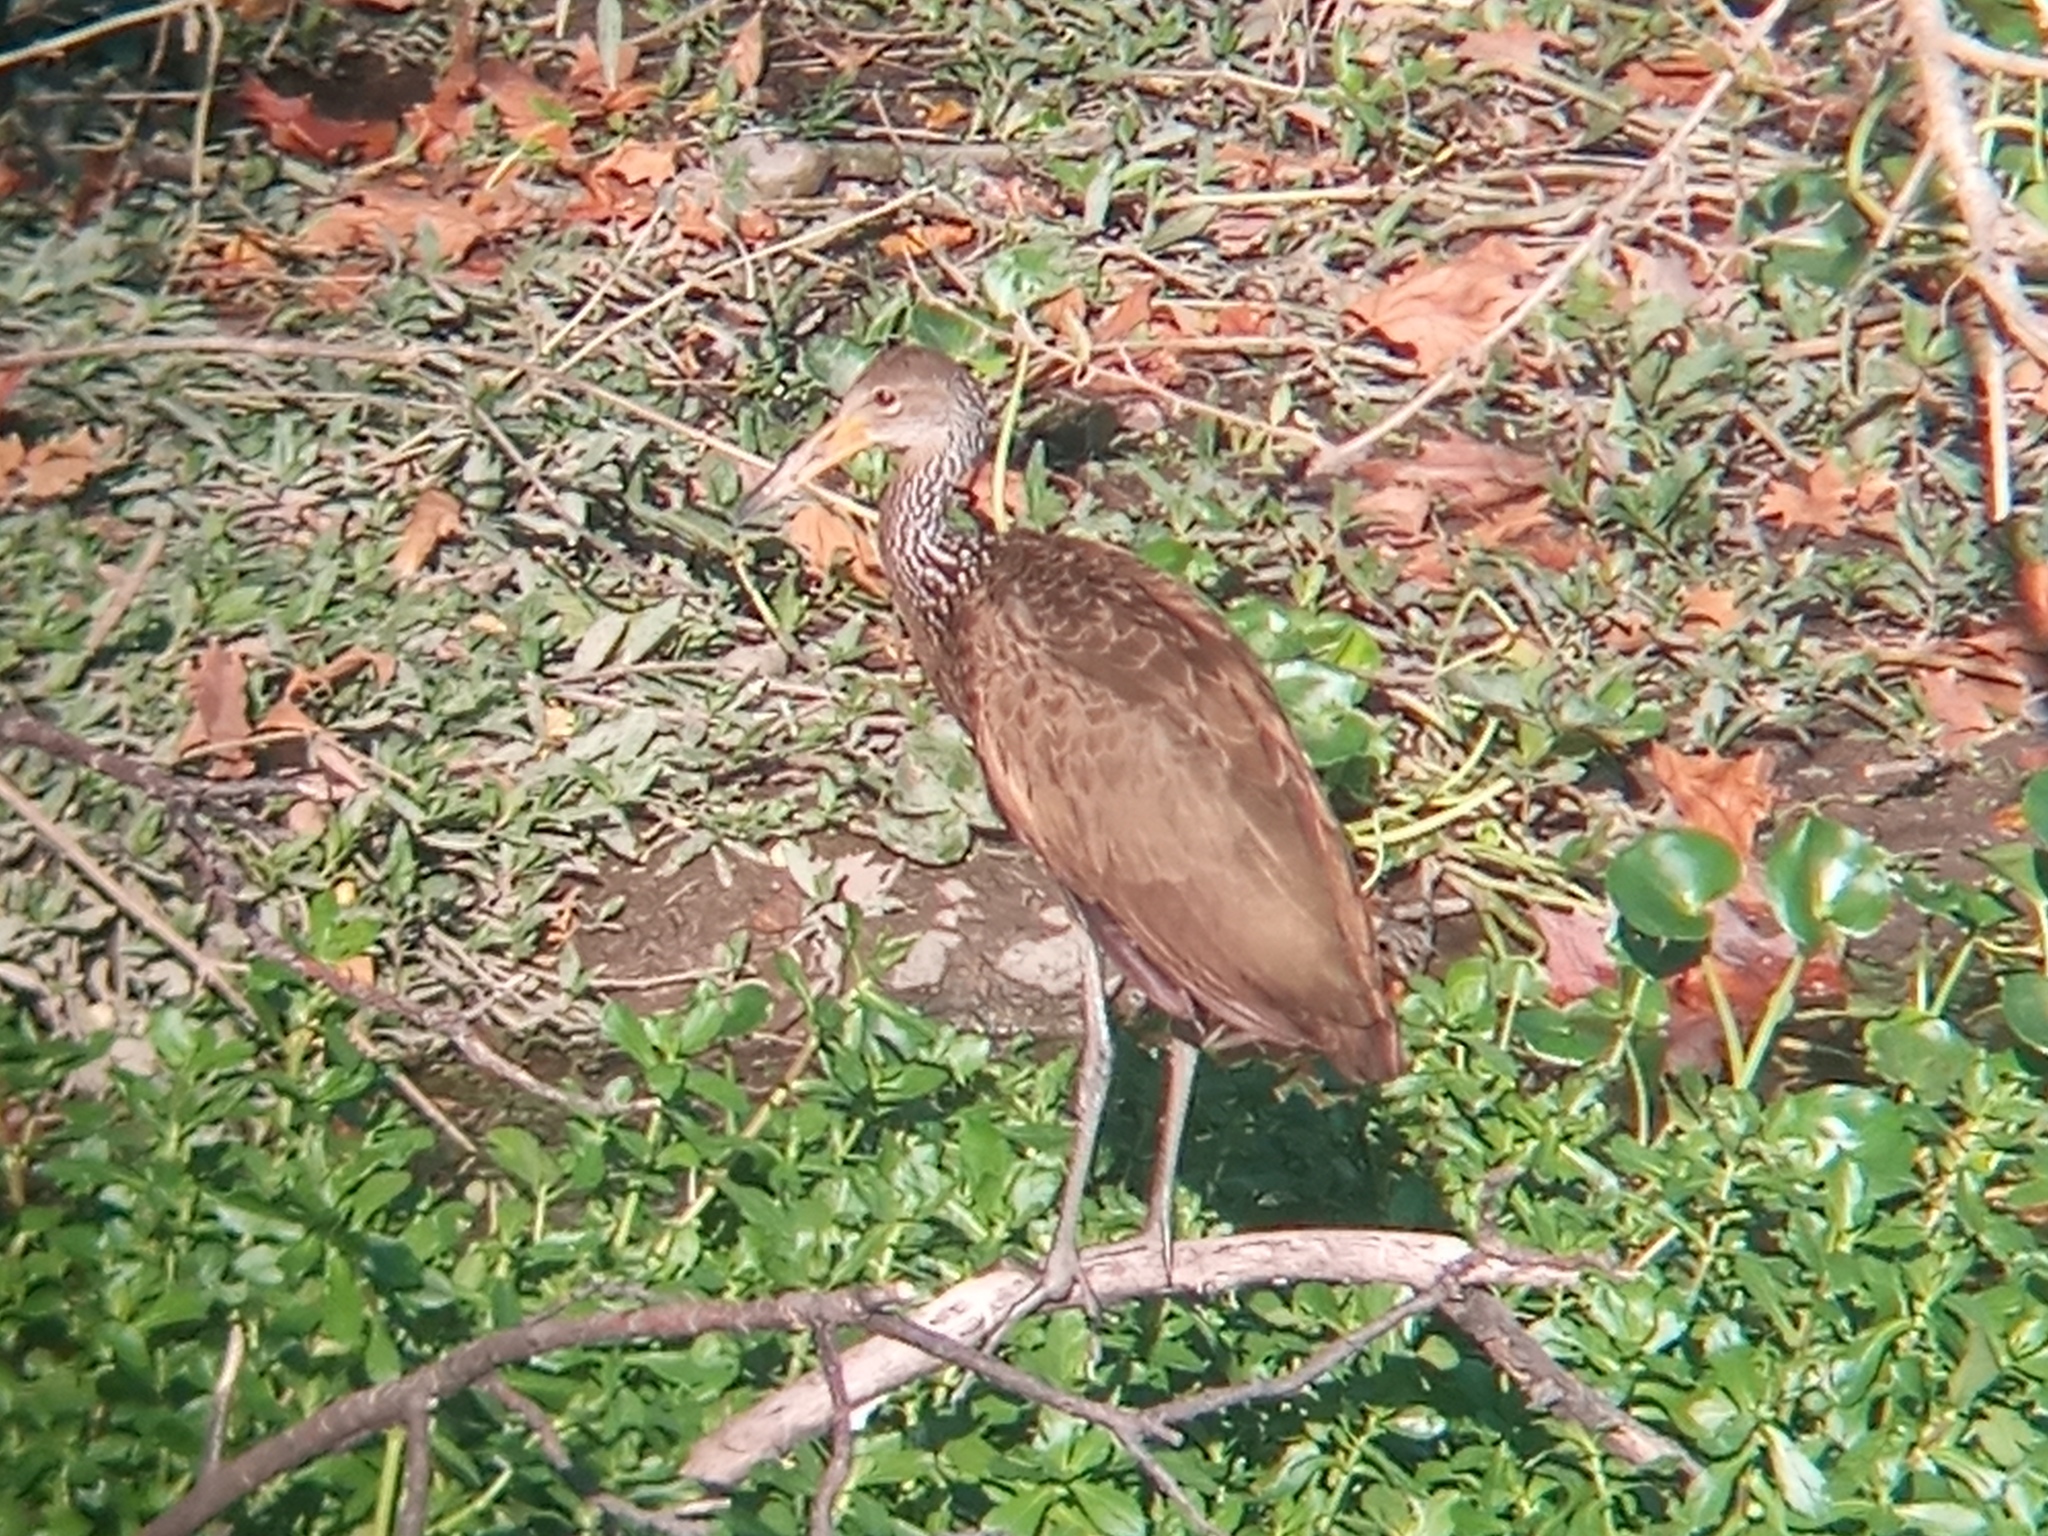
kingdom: Animalia
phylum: Chordata
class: Aves
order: Gruiformes
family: Aramidae
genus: Aramus
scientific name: Aramus guarauna
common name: Limpkin
